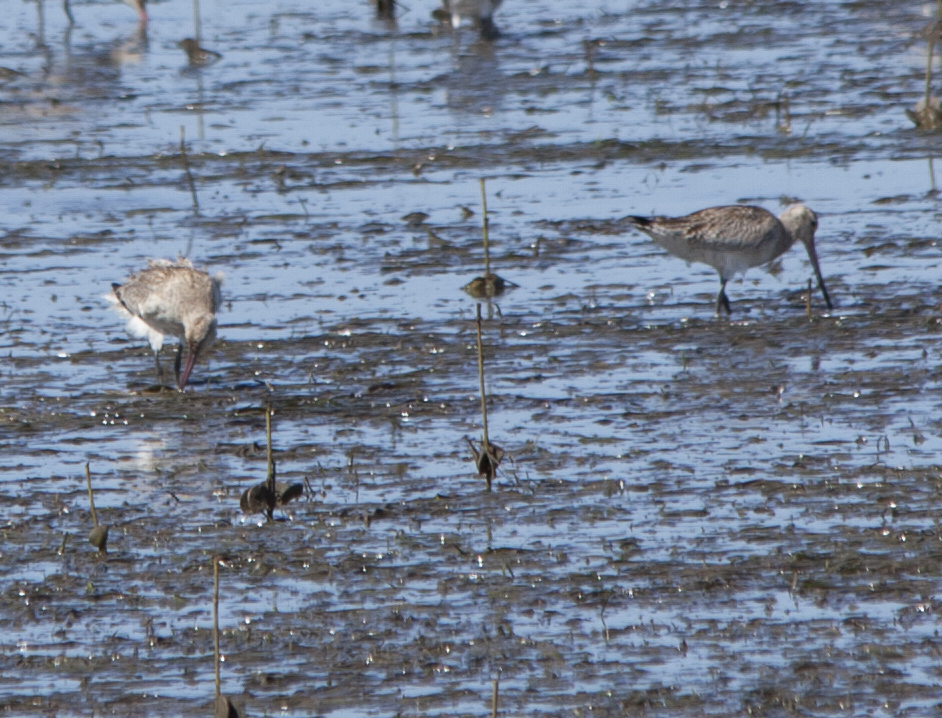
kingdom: Animalia
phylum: Chordata
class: Aves
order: Charadriiformes
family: Scolopacidae
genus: Limosa
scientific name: Limosa lapponica
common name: Bar-tailed godwit
